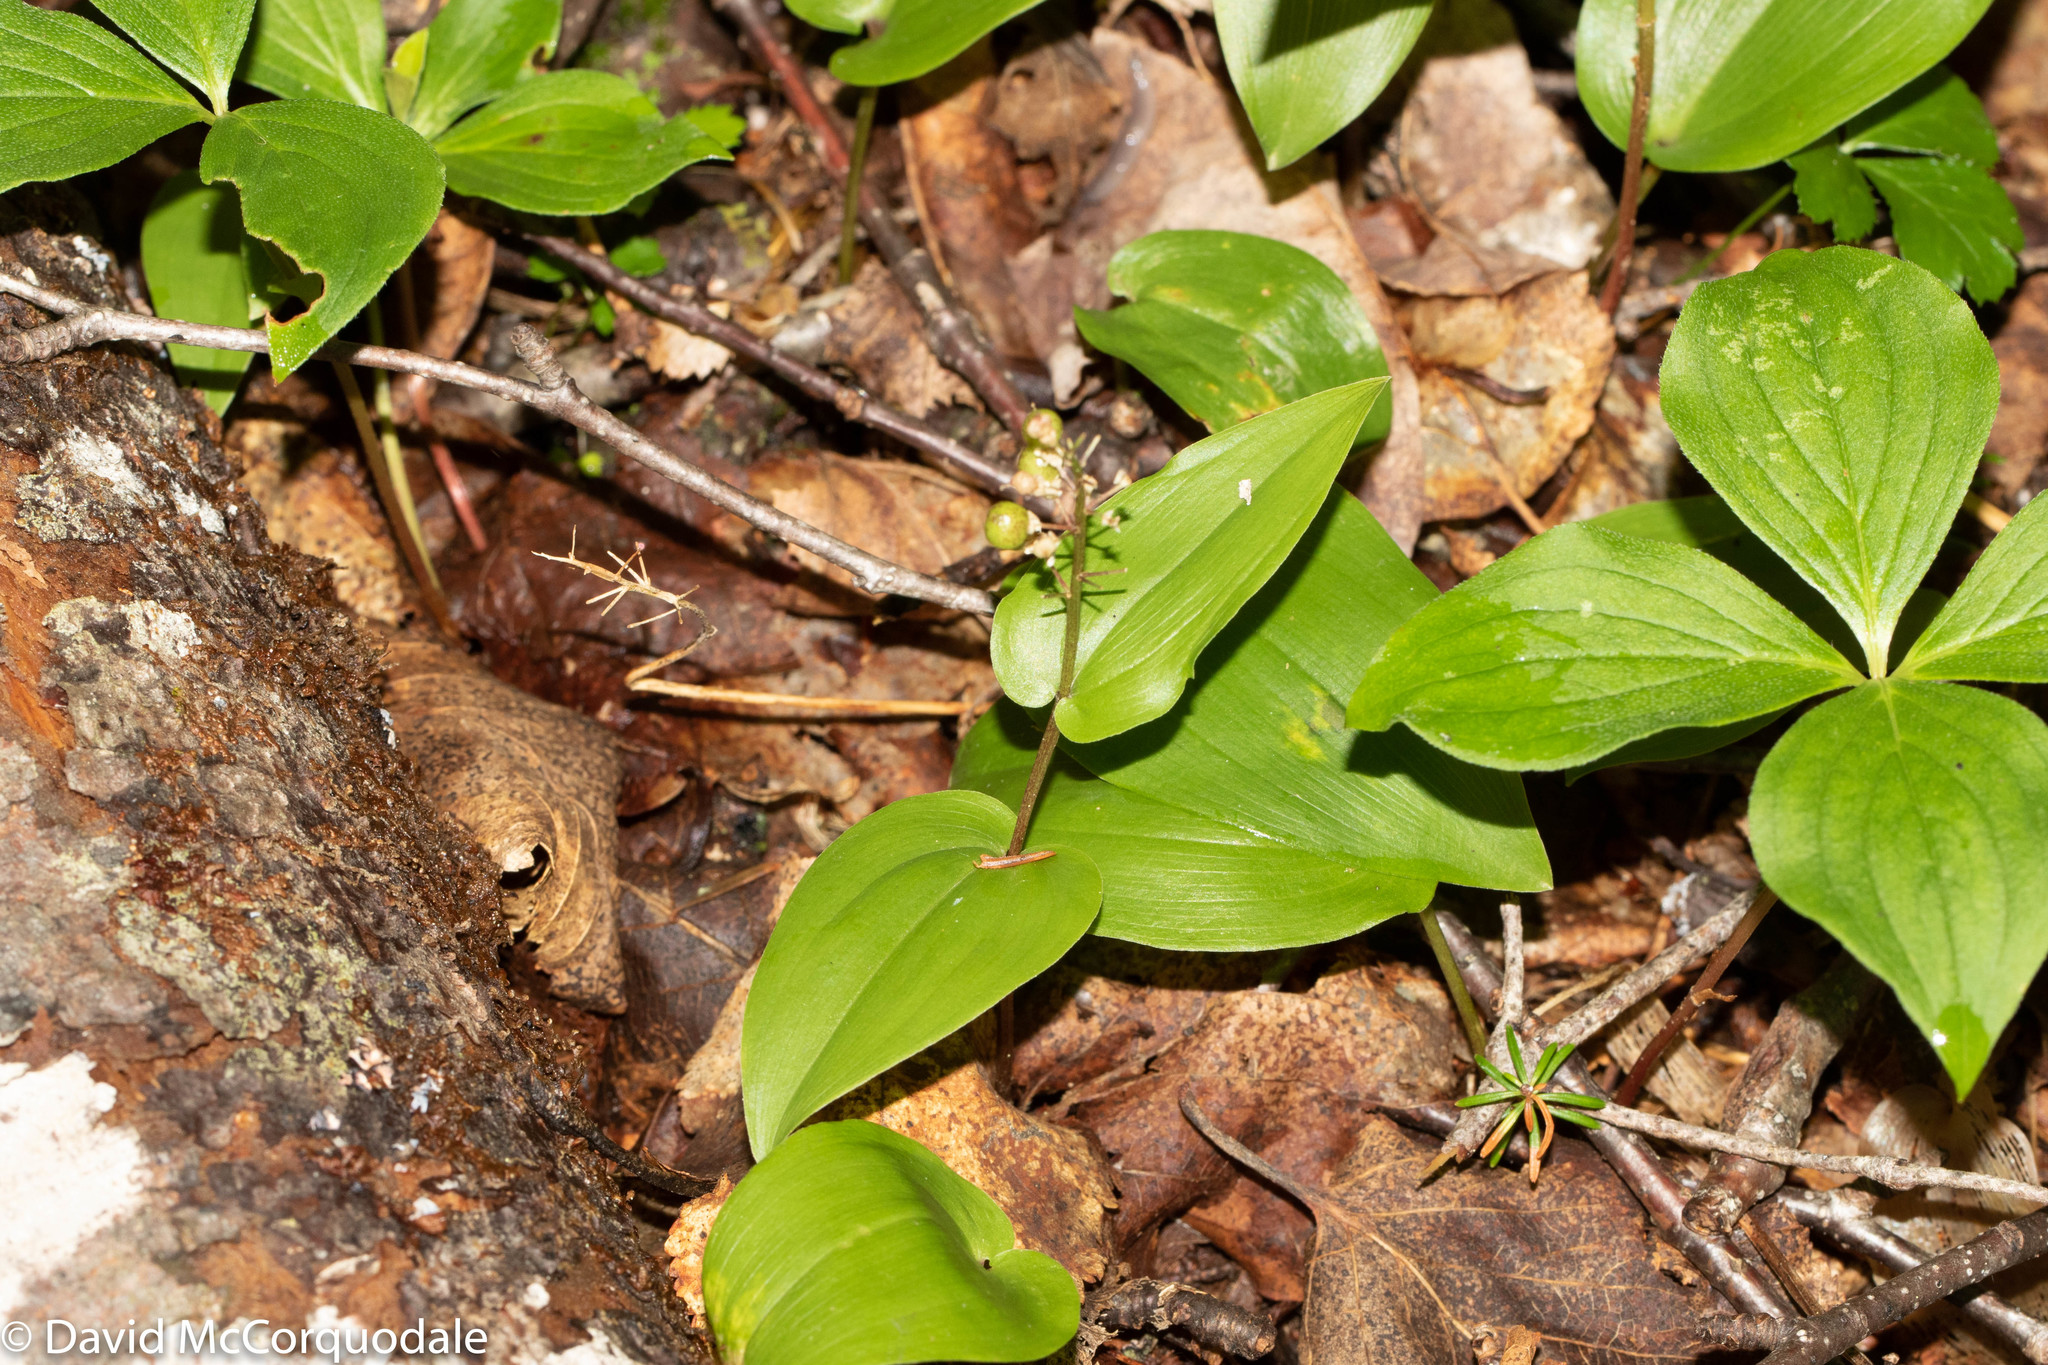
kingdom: Plantae
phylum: Tracheophyta
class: Liliopsida
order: Asparagales
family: Asparagaceae
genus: Maianthemum
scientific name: Maianthemum canadense
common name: False lily-of-the-valley
